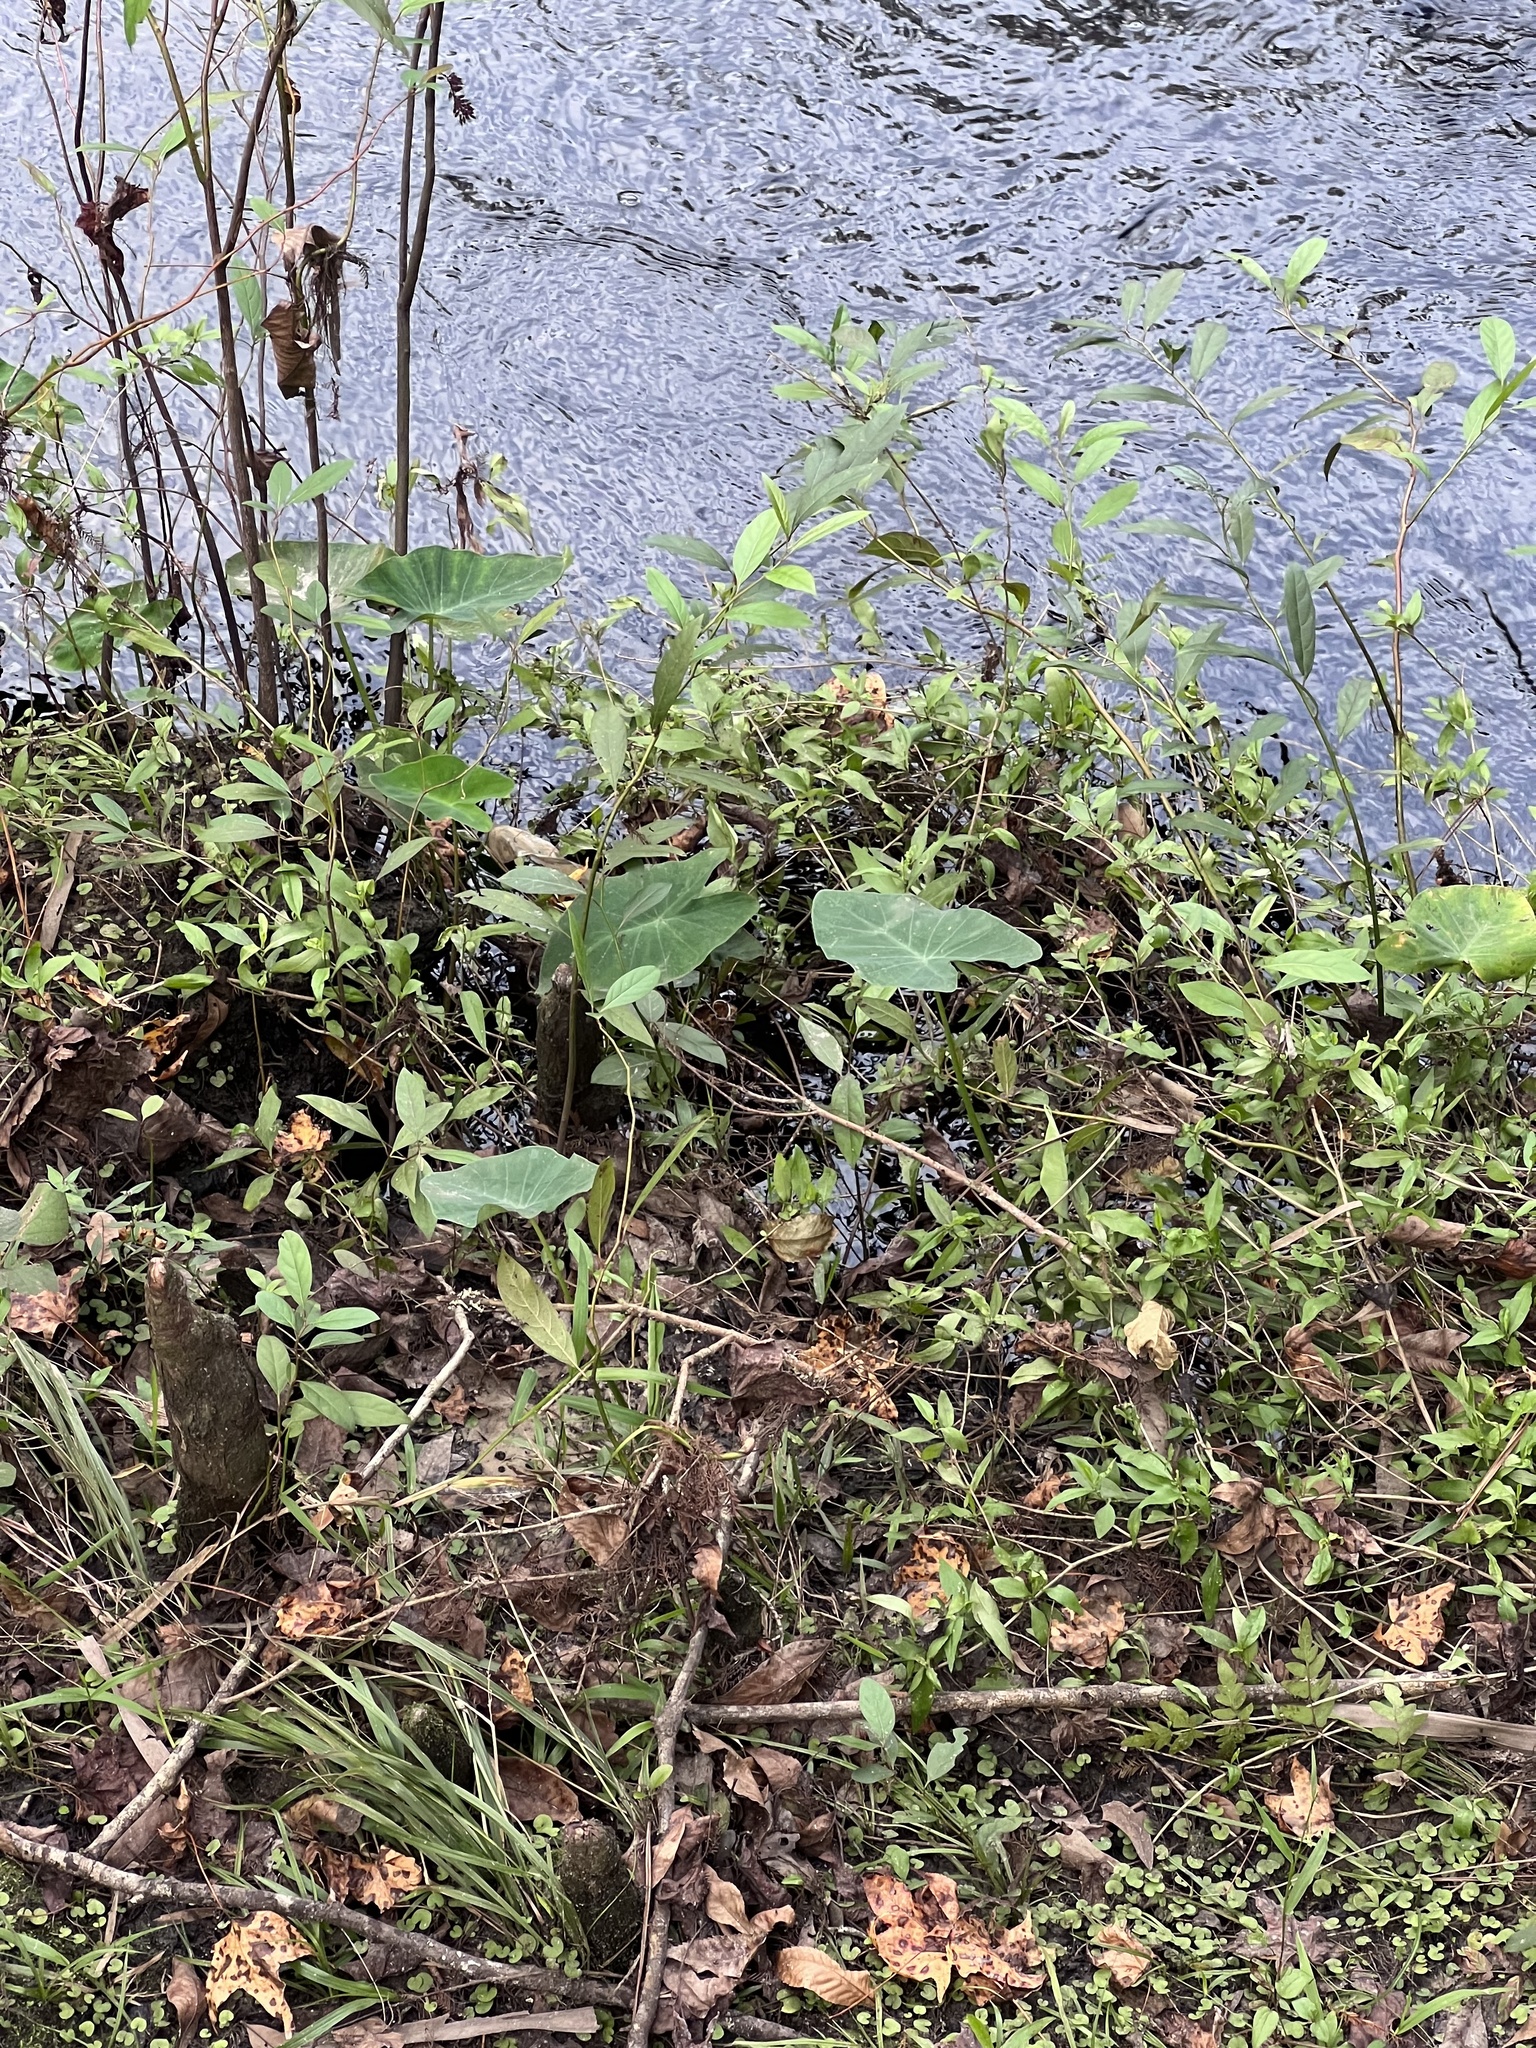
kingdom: Plantae
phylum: Tracheophyta
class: Liliopsida
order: Alismatales
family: Araceae
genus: Colocasia
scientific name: Colocasia esculenta
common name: Taro
